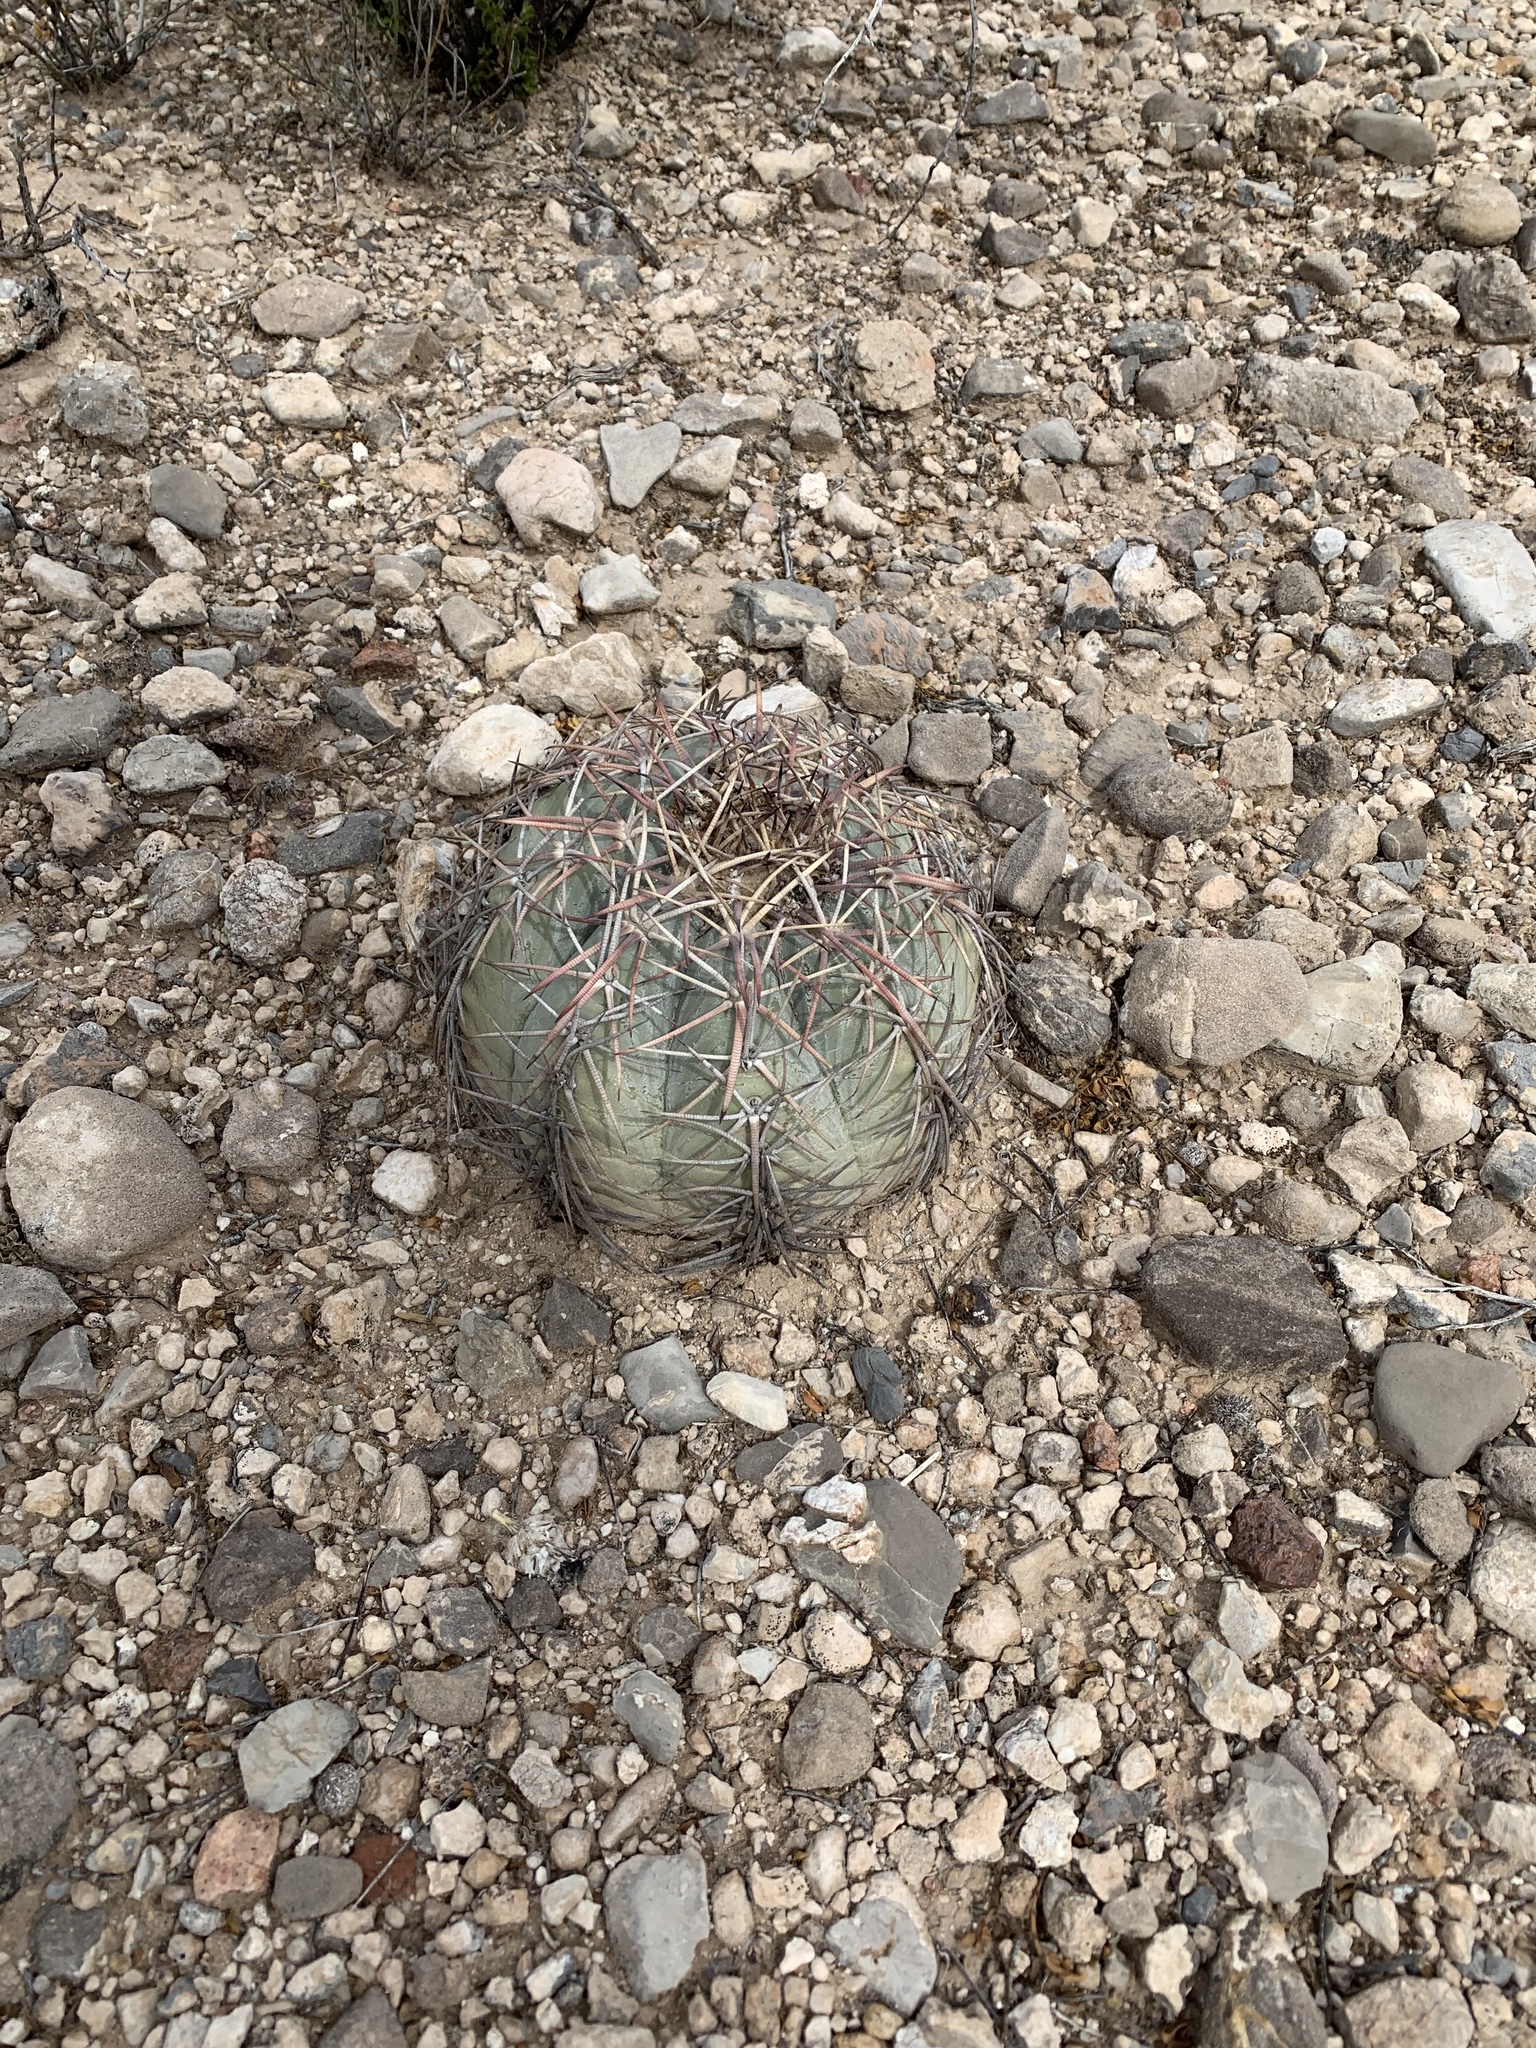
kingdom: Plantae
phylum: Tracheophyta
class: Magnoliopsida
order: Caryophyllales
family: Cactaceae
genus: Echinocactus
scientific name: Echinocactus horizonthalonius
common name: Devilshead
